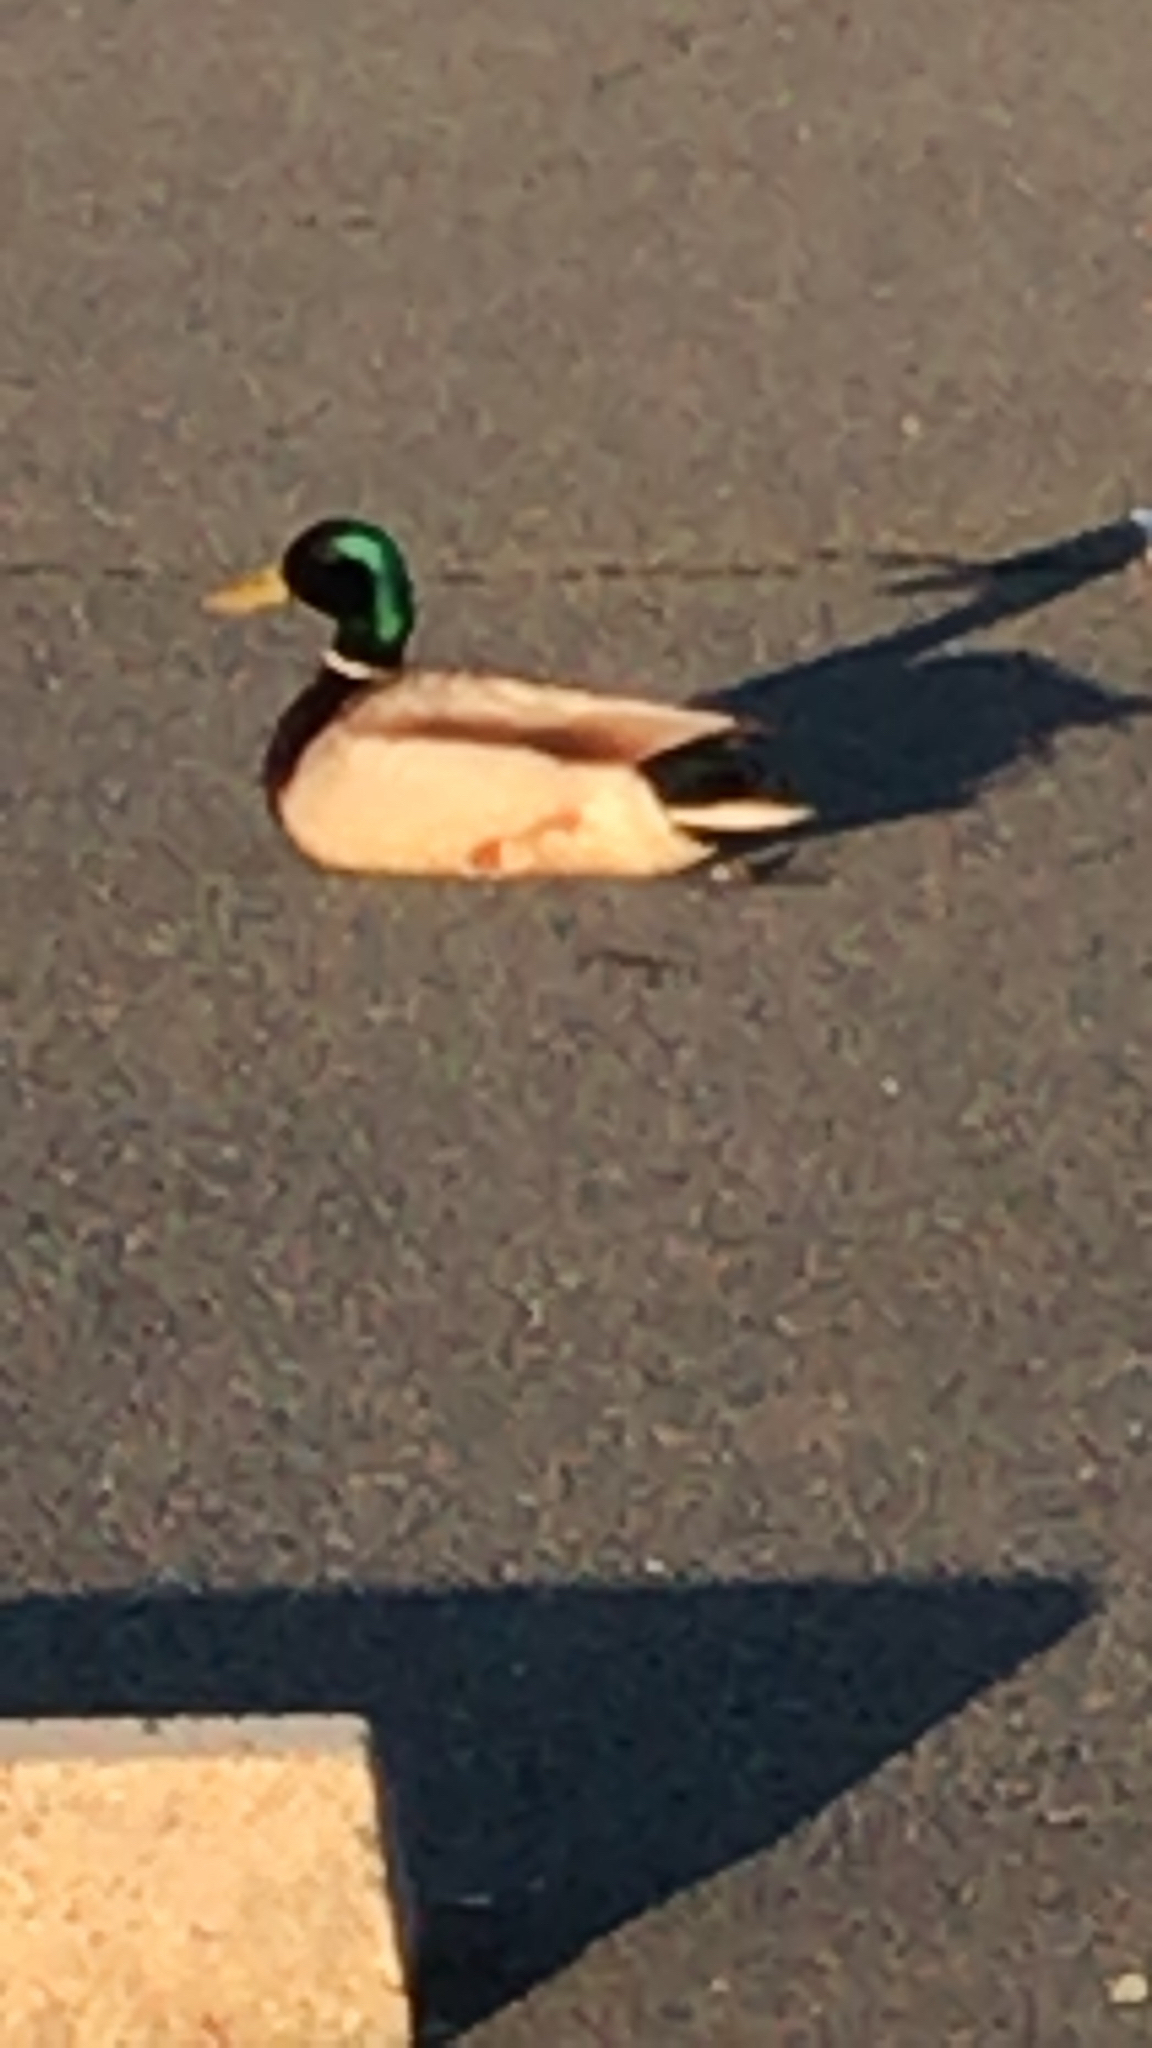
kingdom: Animalia
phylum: Chordata
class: Aves
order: Anseriformes
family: Anatidae
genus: Anas
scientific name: Anas platyrhynchos
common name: Mallard
